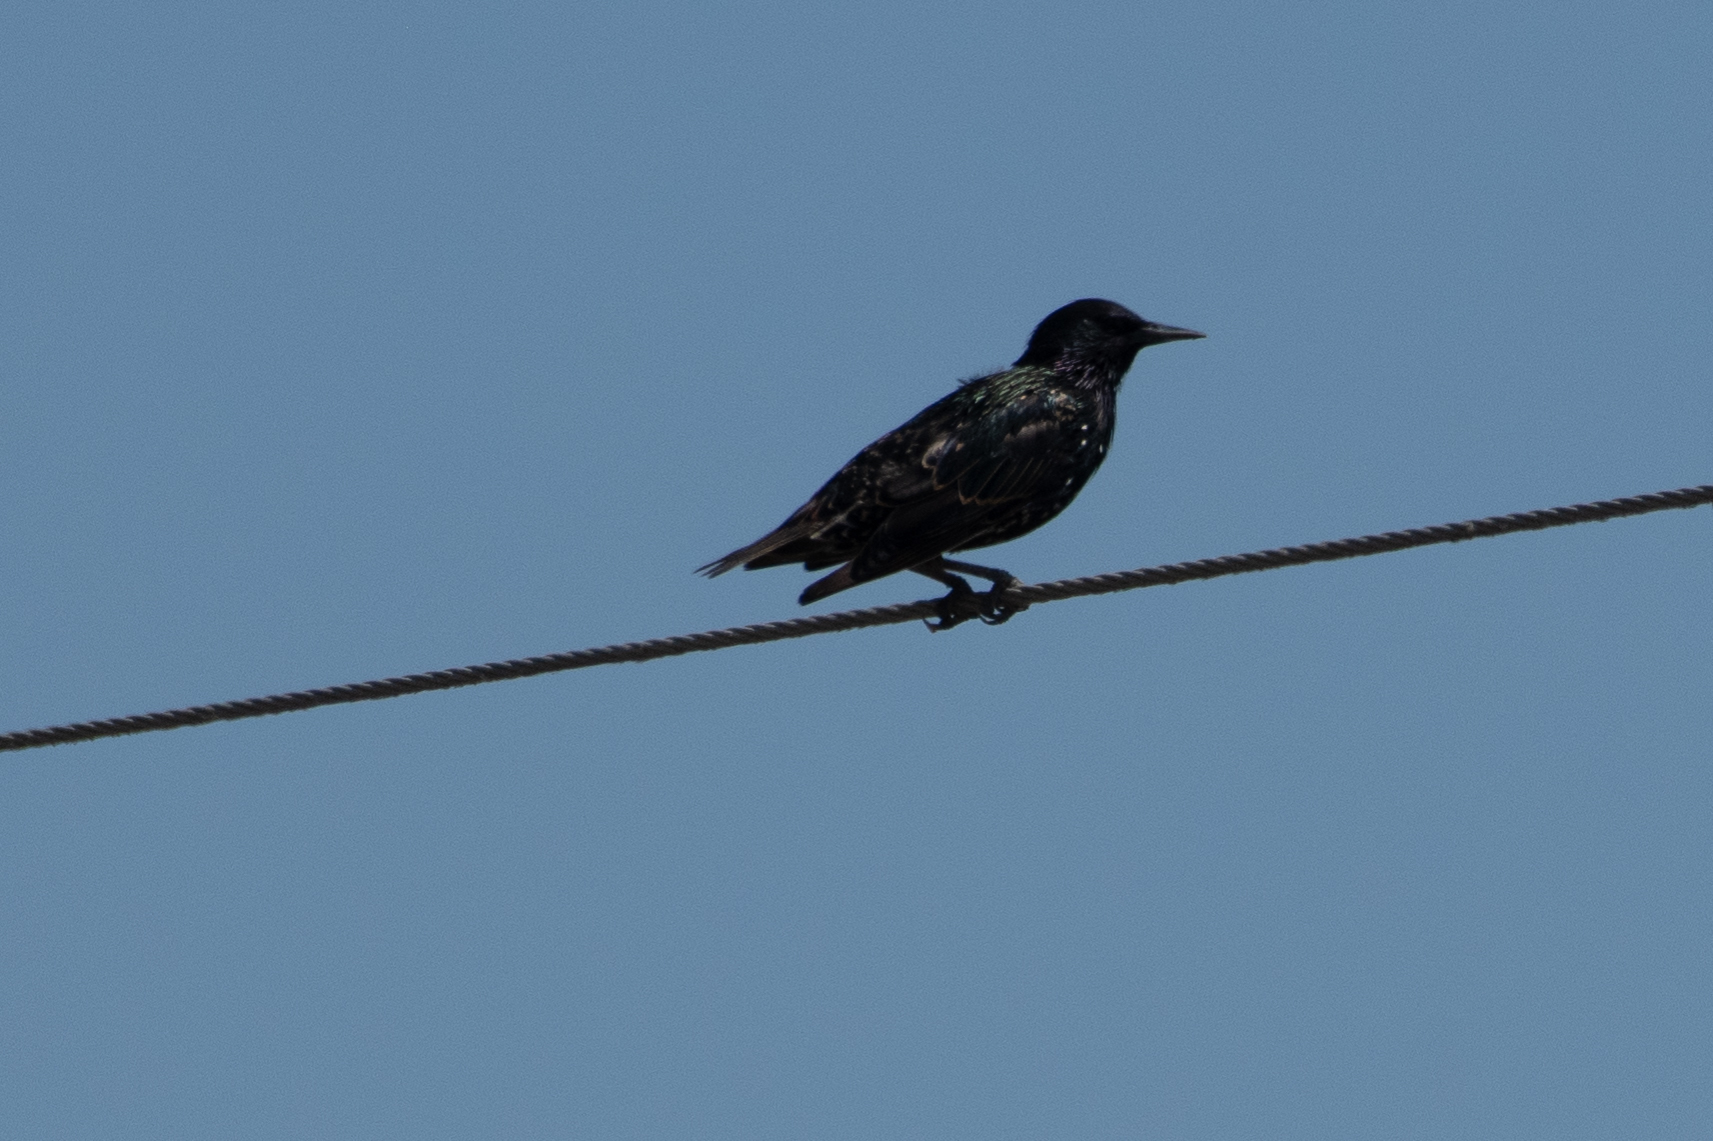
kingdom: Animalia
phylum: Chordata
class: Aves
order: Passeriformes
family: Sturnidae
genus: Sturnus
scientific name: Sturnus vulgaris
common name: Common starling
